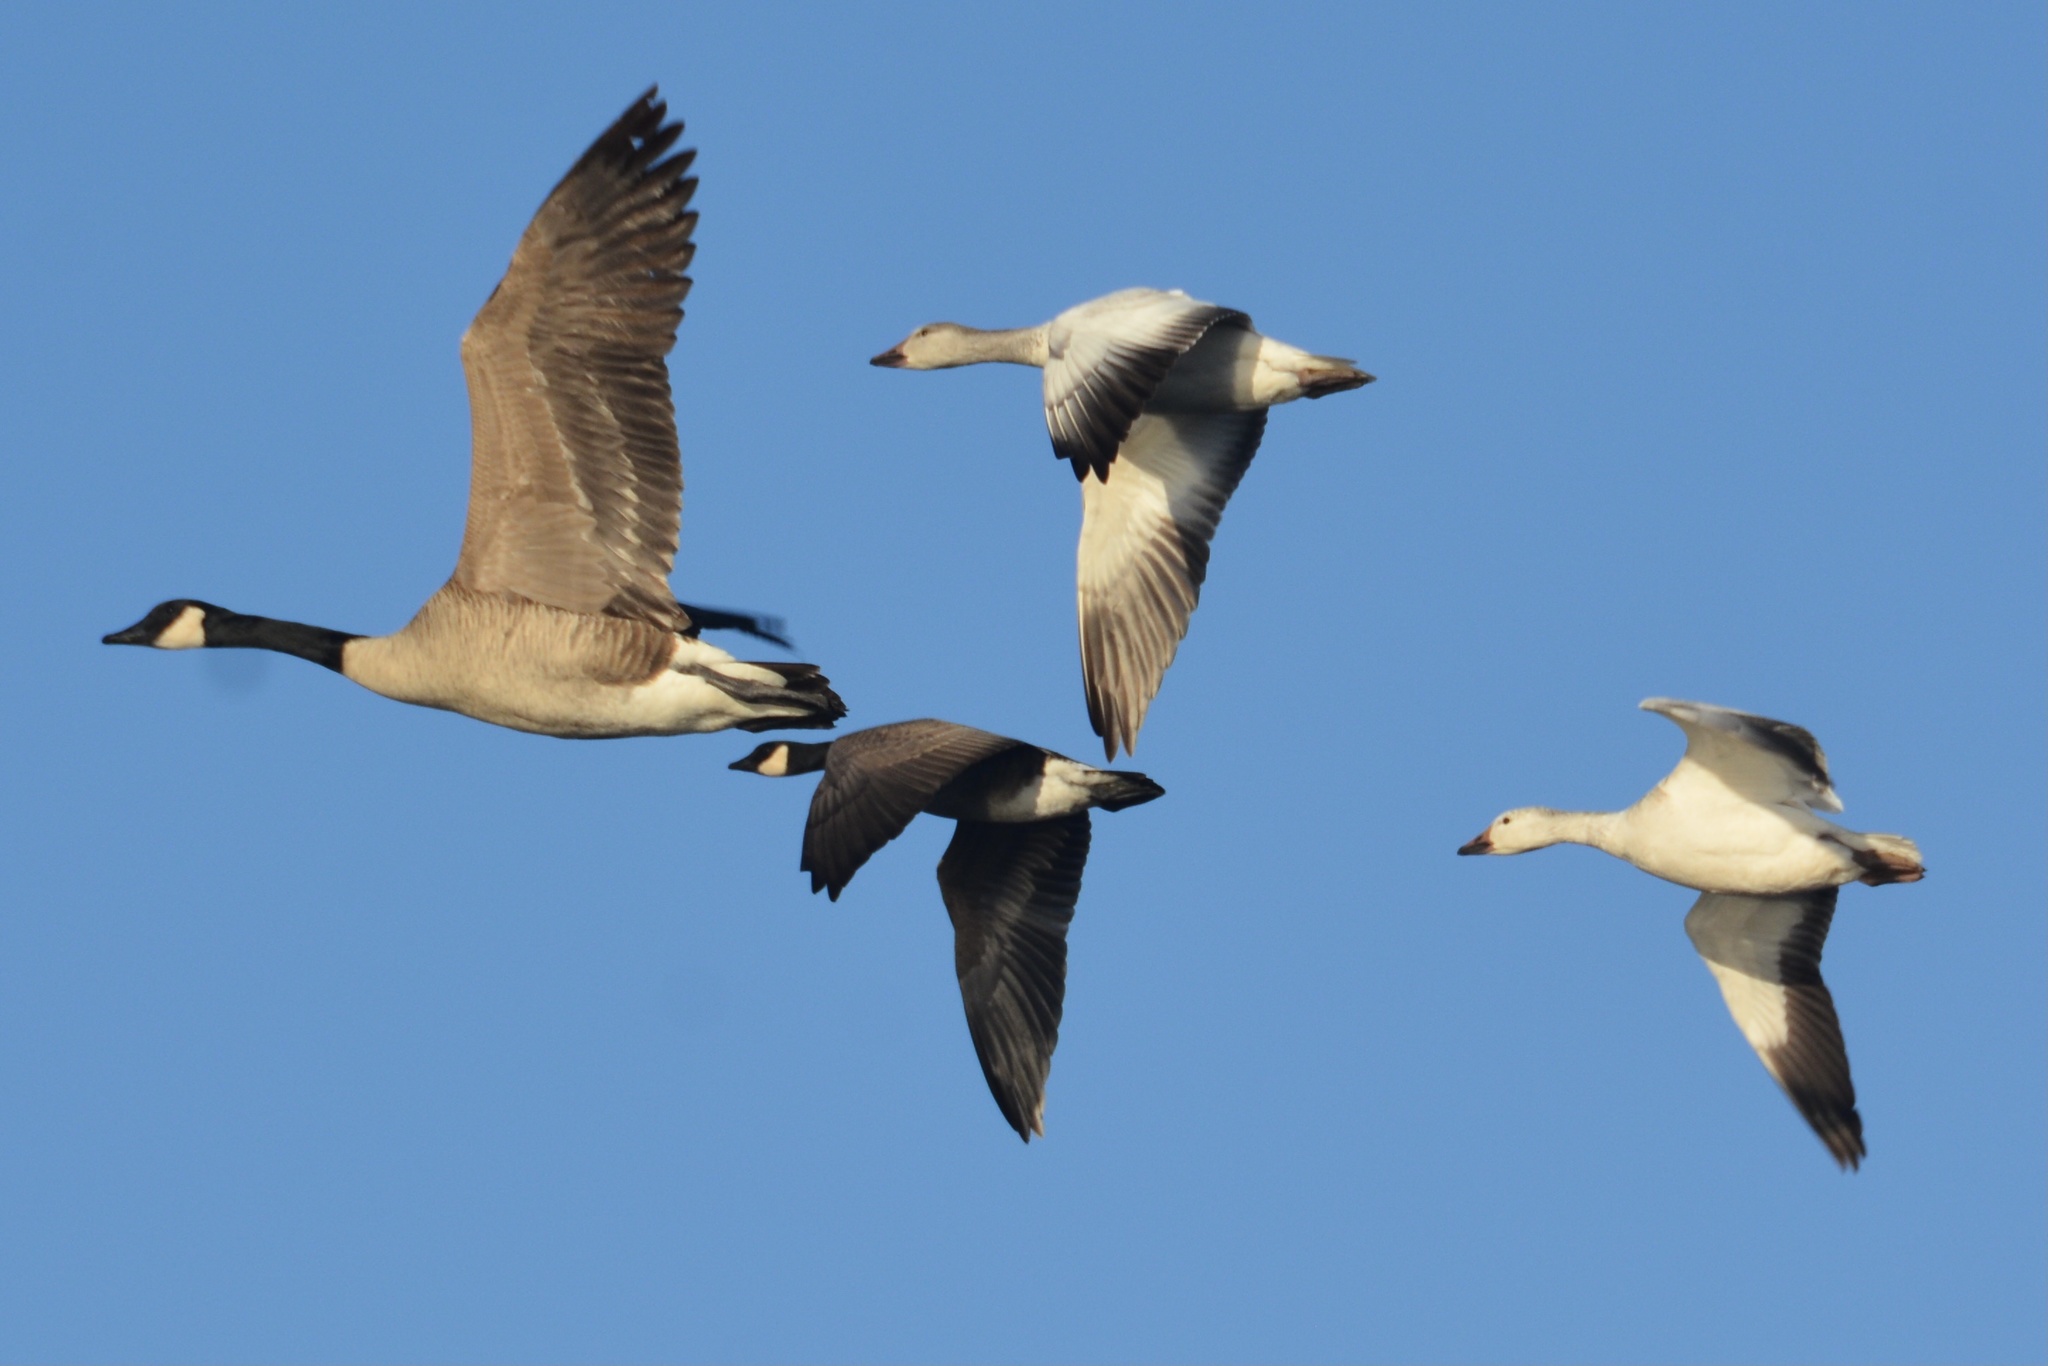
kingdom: Animalia
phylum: Chordata
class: Aves
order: Anseriformes
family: Anatidae
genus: Anser
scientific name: Anser caerulescens
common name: Snow goose
